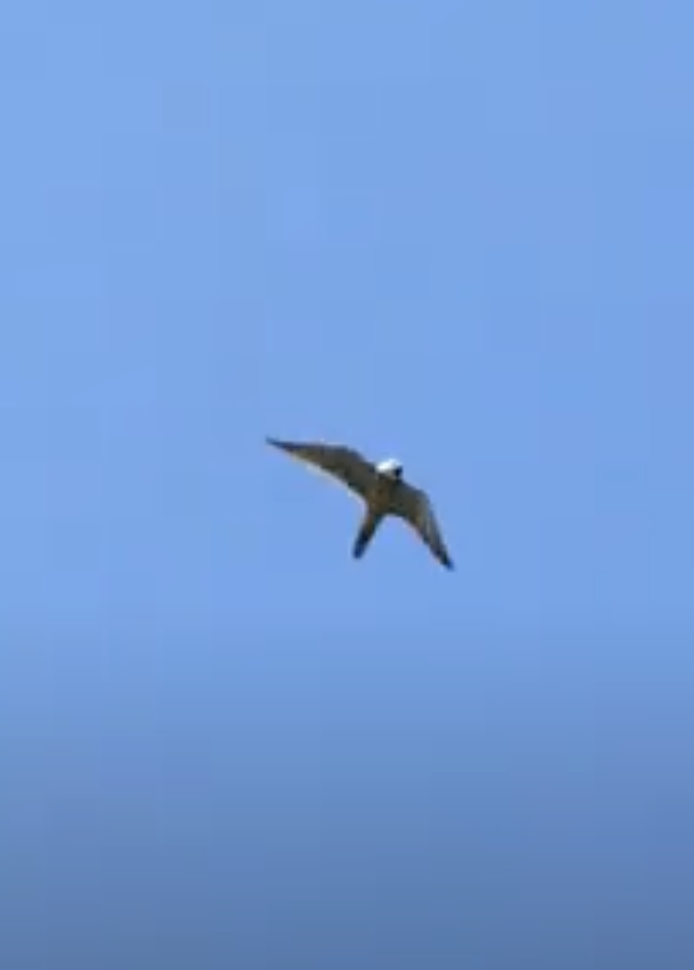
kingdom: Animalia
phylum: Chordata
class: Aves
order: Falconiformes
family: Falconidae
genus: Falco
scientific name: Falco subbuteo
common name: Eurasian hobby
